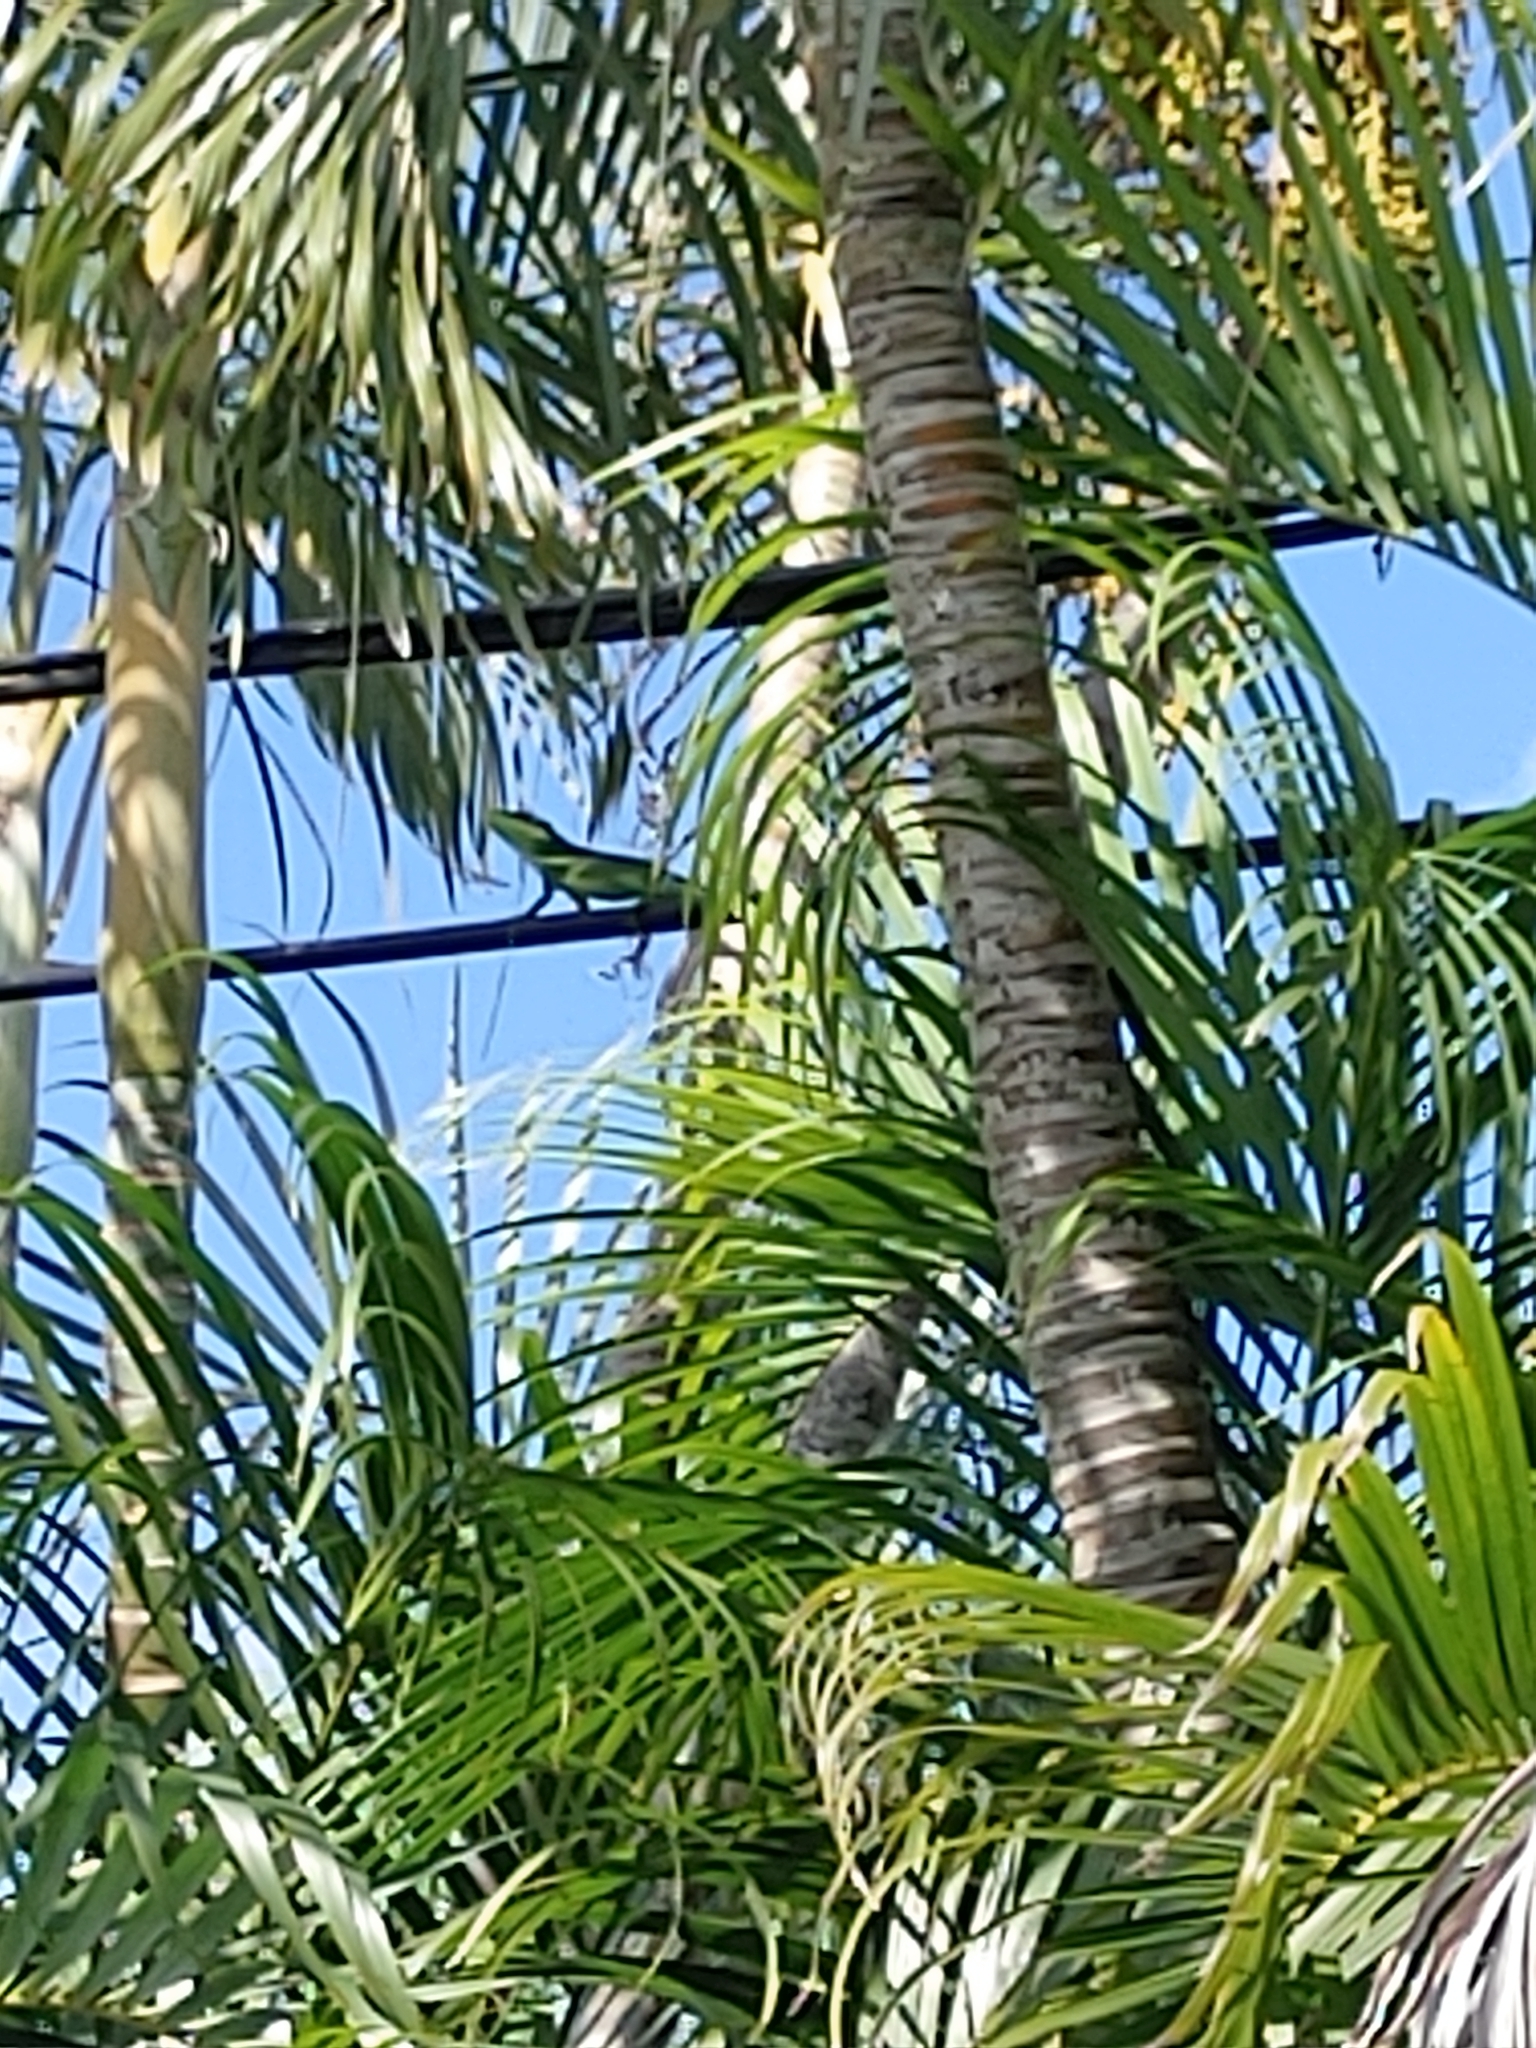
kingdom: Animalia
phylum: Chordata
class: Squamata
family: Dactyloidae
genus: Anolis
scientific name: Anolis equestris
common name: Knight anole
